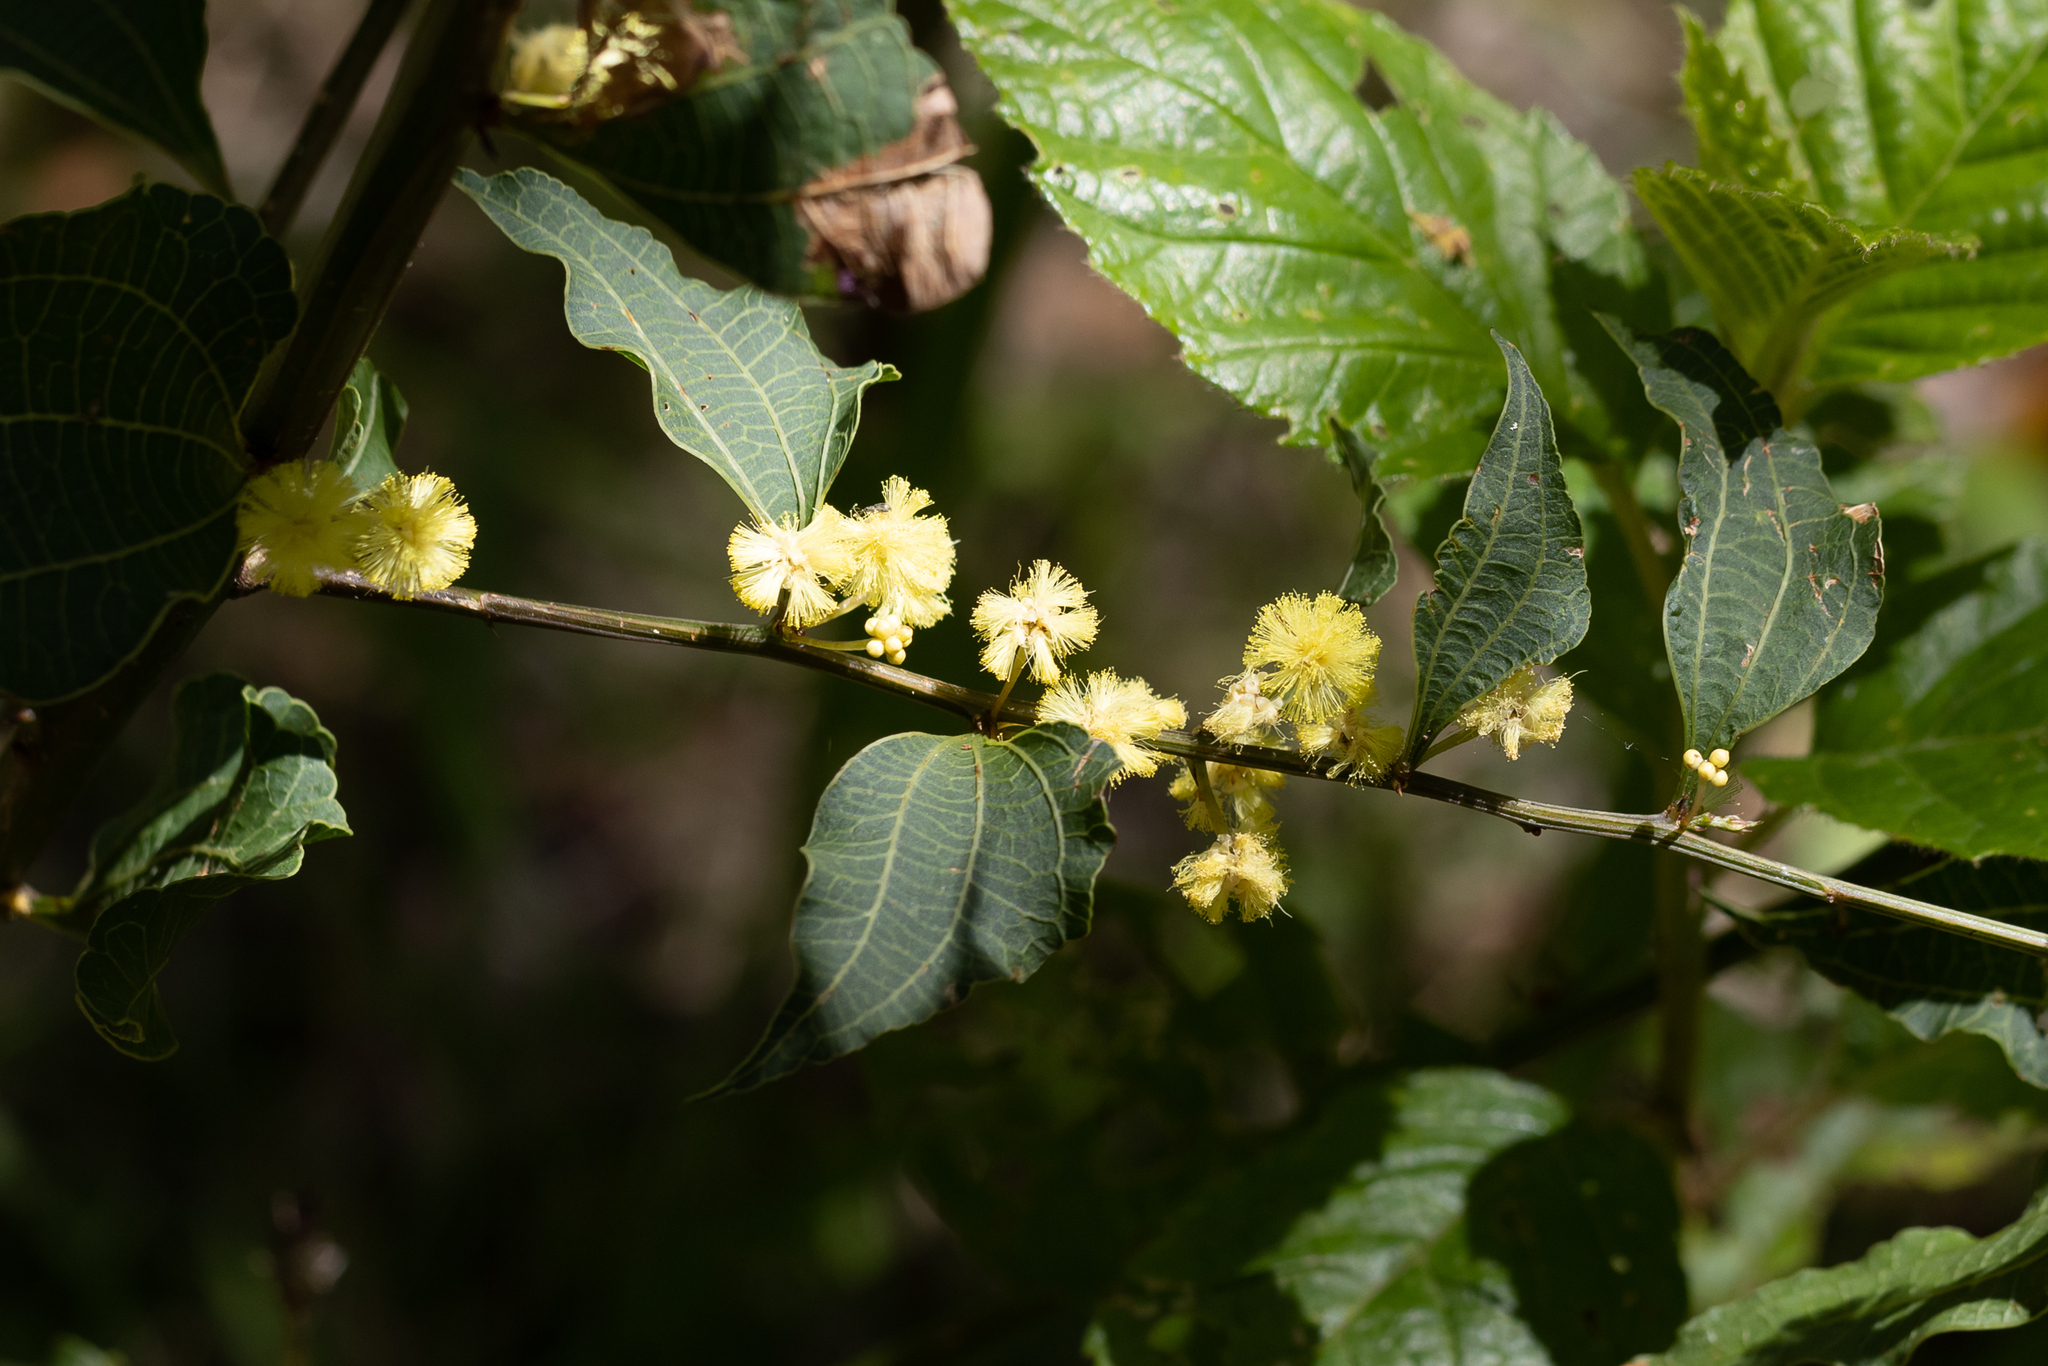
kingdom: Plantae
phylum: Tracheophyta
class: Magnoliopsida
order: Fabales
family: Fabaceae
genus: Acacia
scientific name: Acacia urophylla
